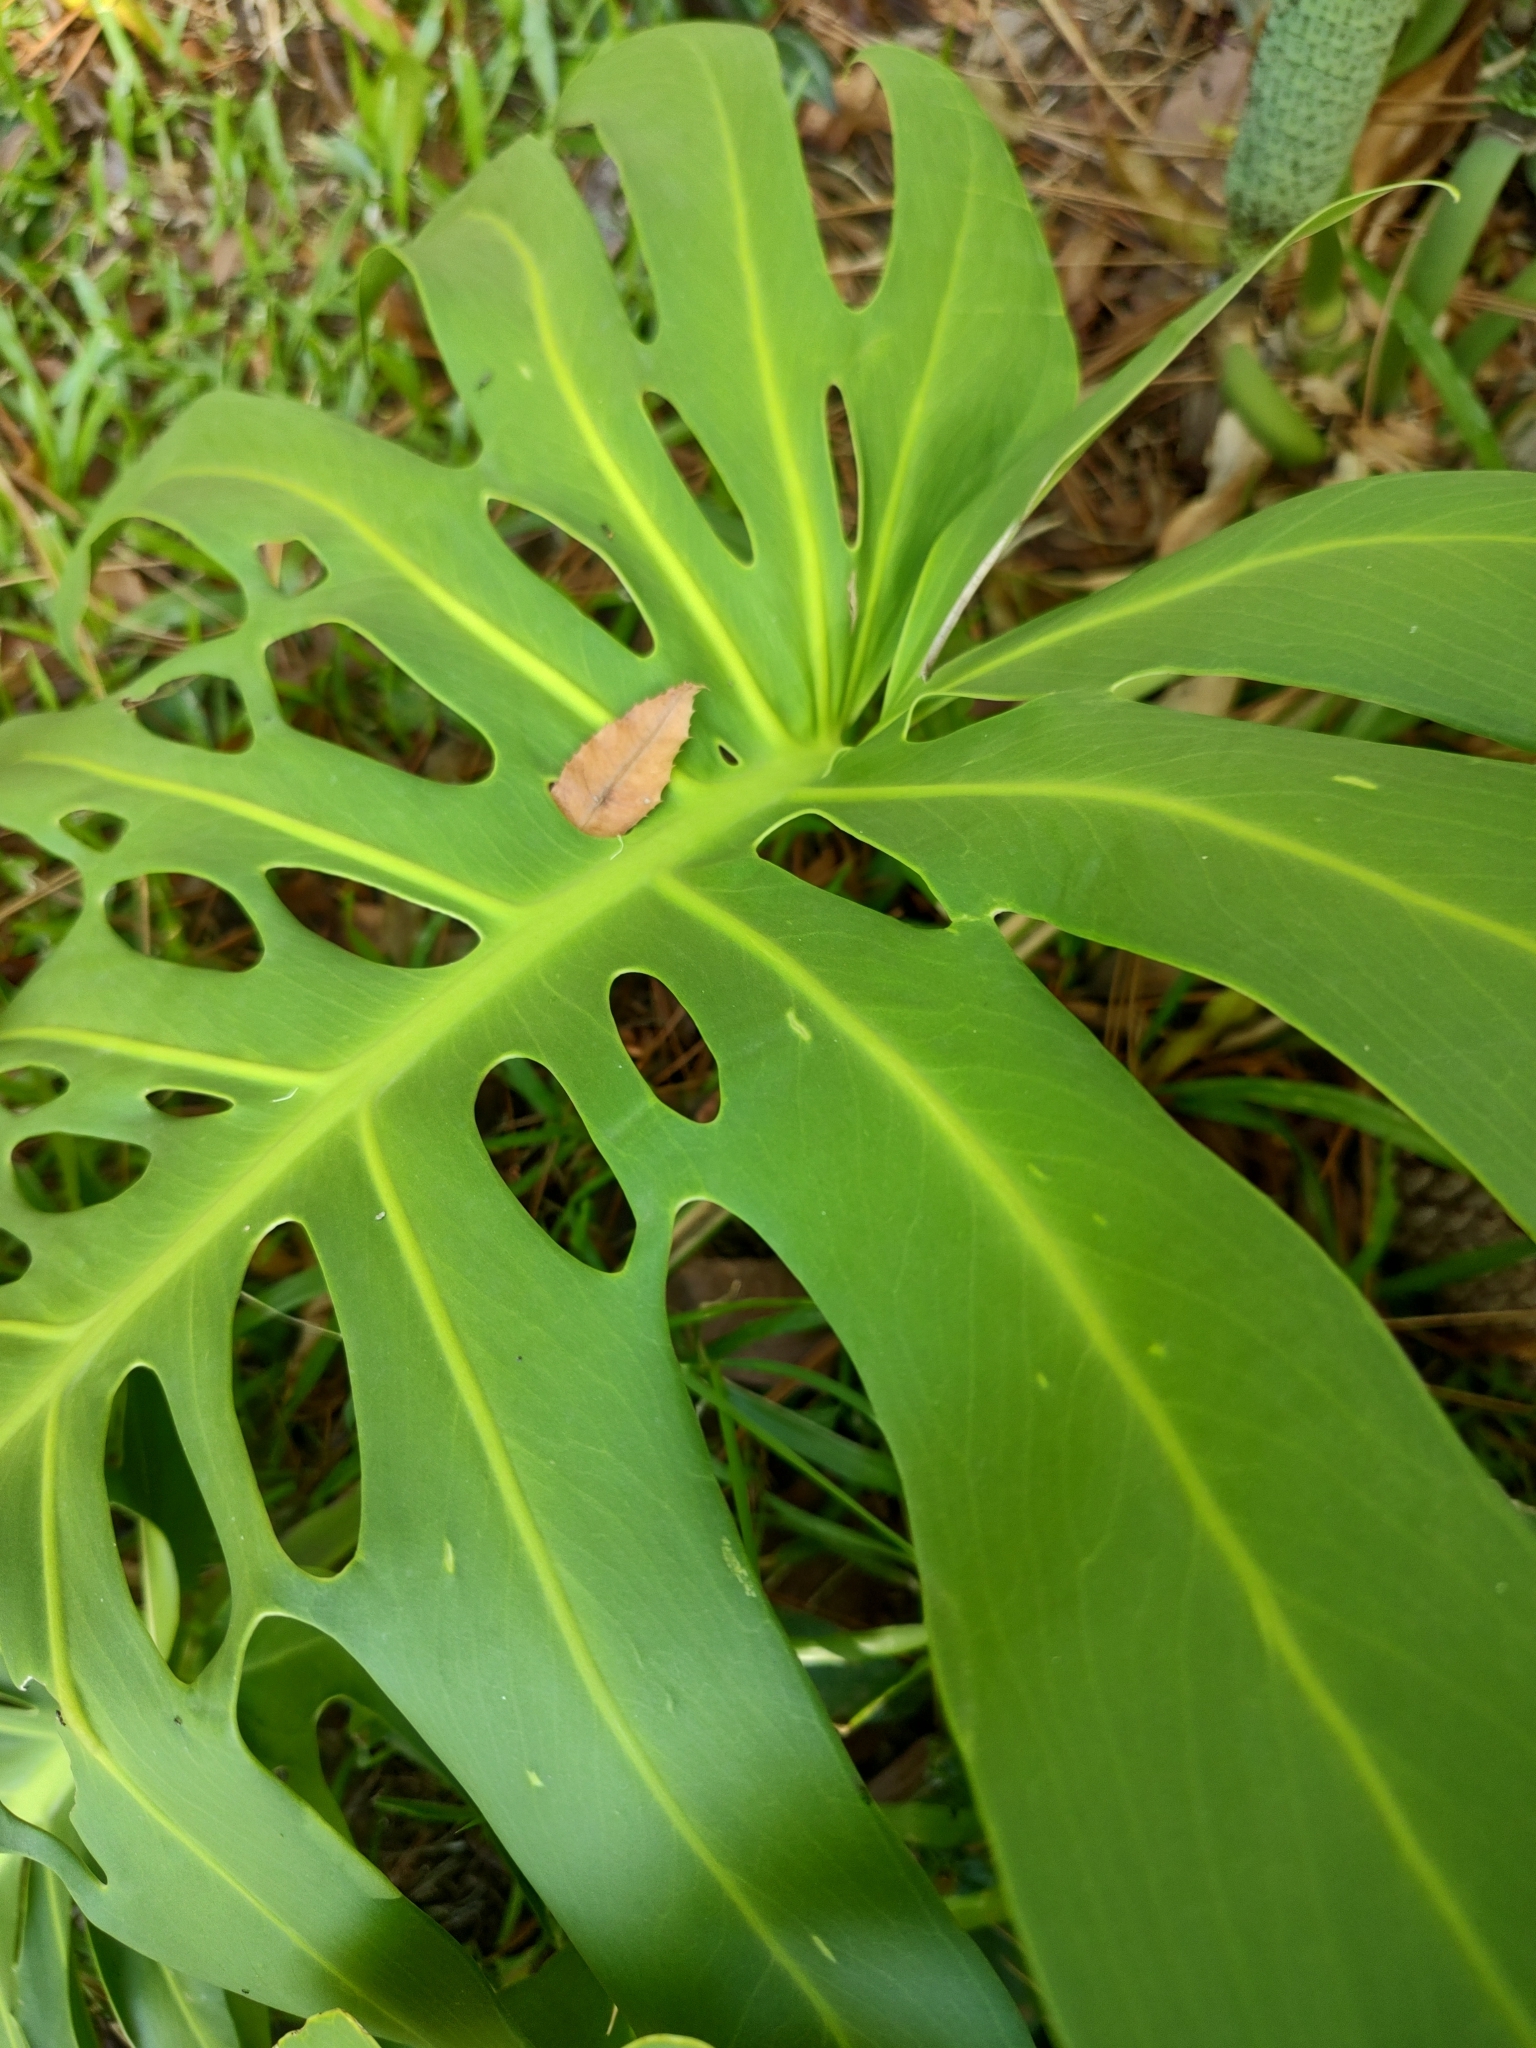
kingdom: Plantae
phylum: Tracheophyta
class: Liliopsida
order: Alismatales
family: Araceae
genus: Monstera
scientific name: Monstera deliciosa
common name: Cut-leaf-philodendron
